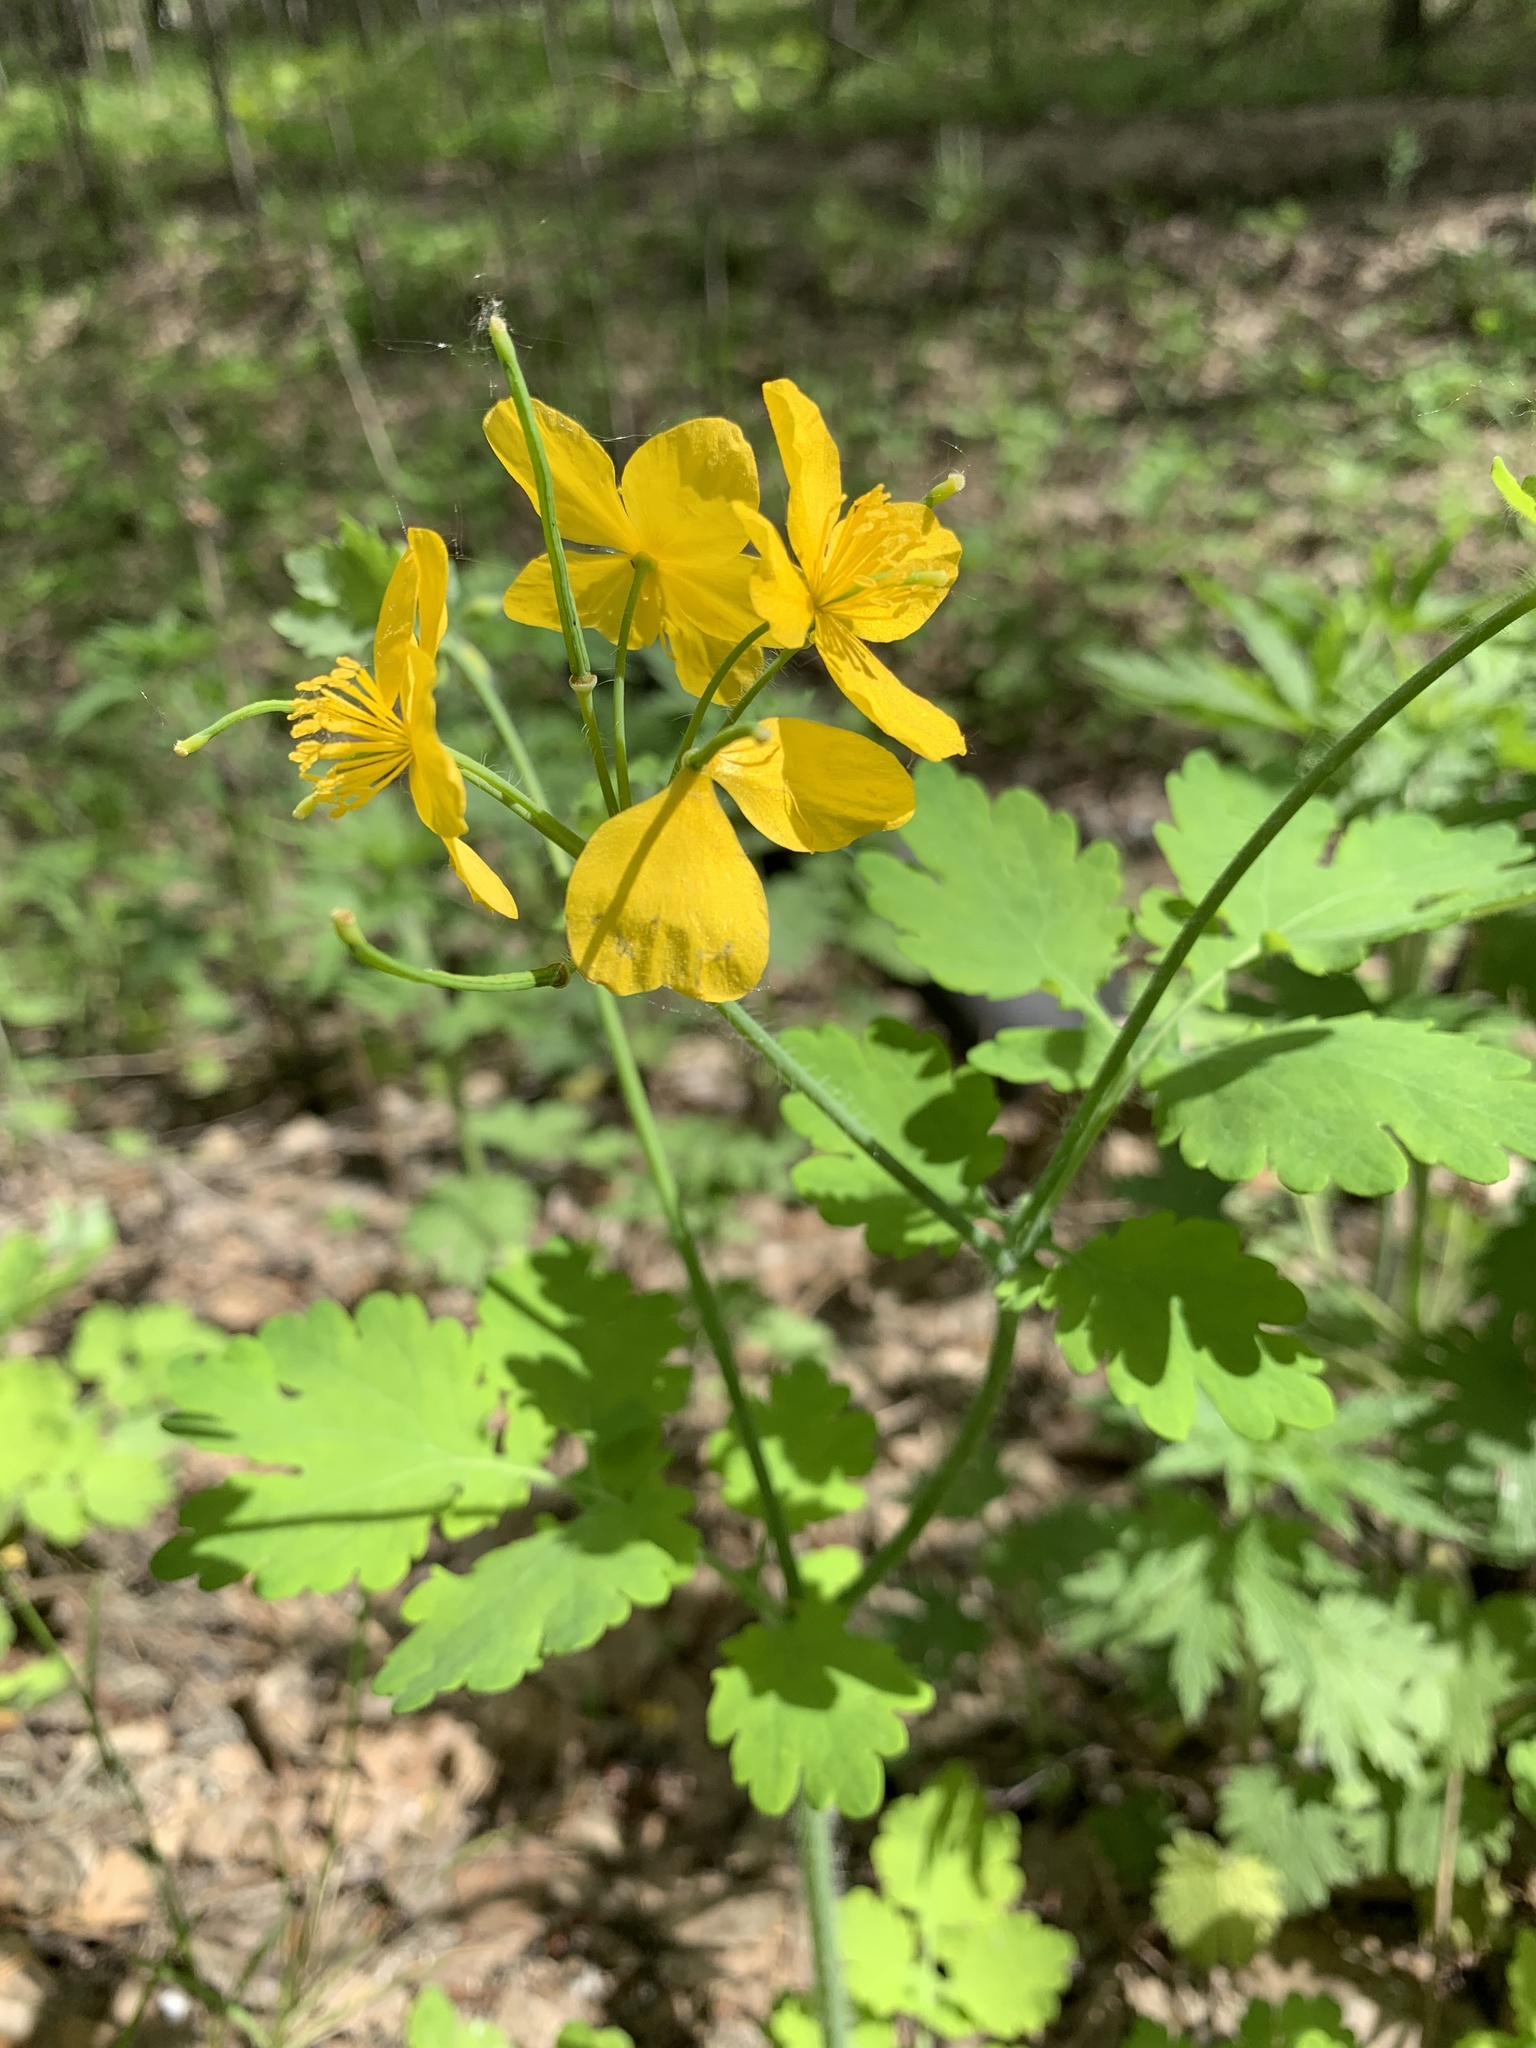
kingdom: Plantae
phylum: Tracheophyta
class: Magnoliopsida
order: Ranunculales
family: Papaveraceae
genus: Chelidonium
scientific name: Chelidonium majus
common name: Greater celandine
